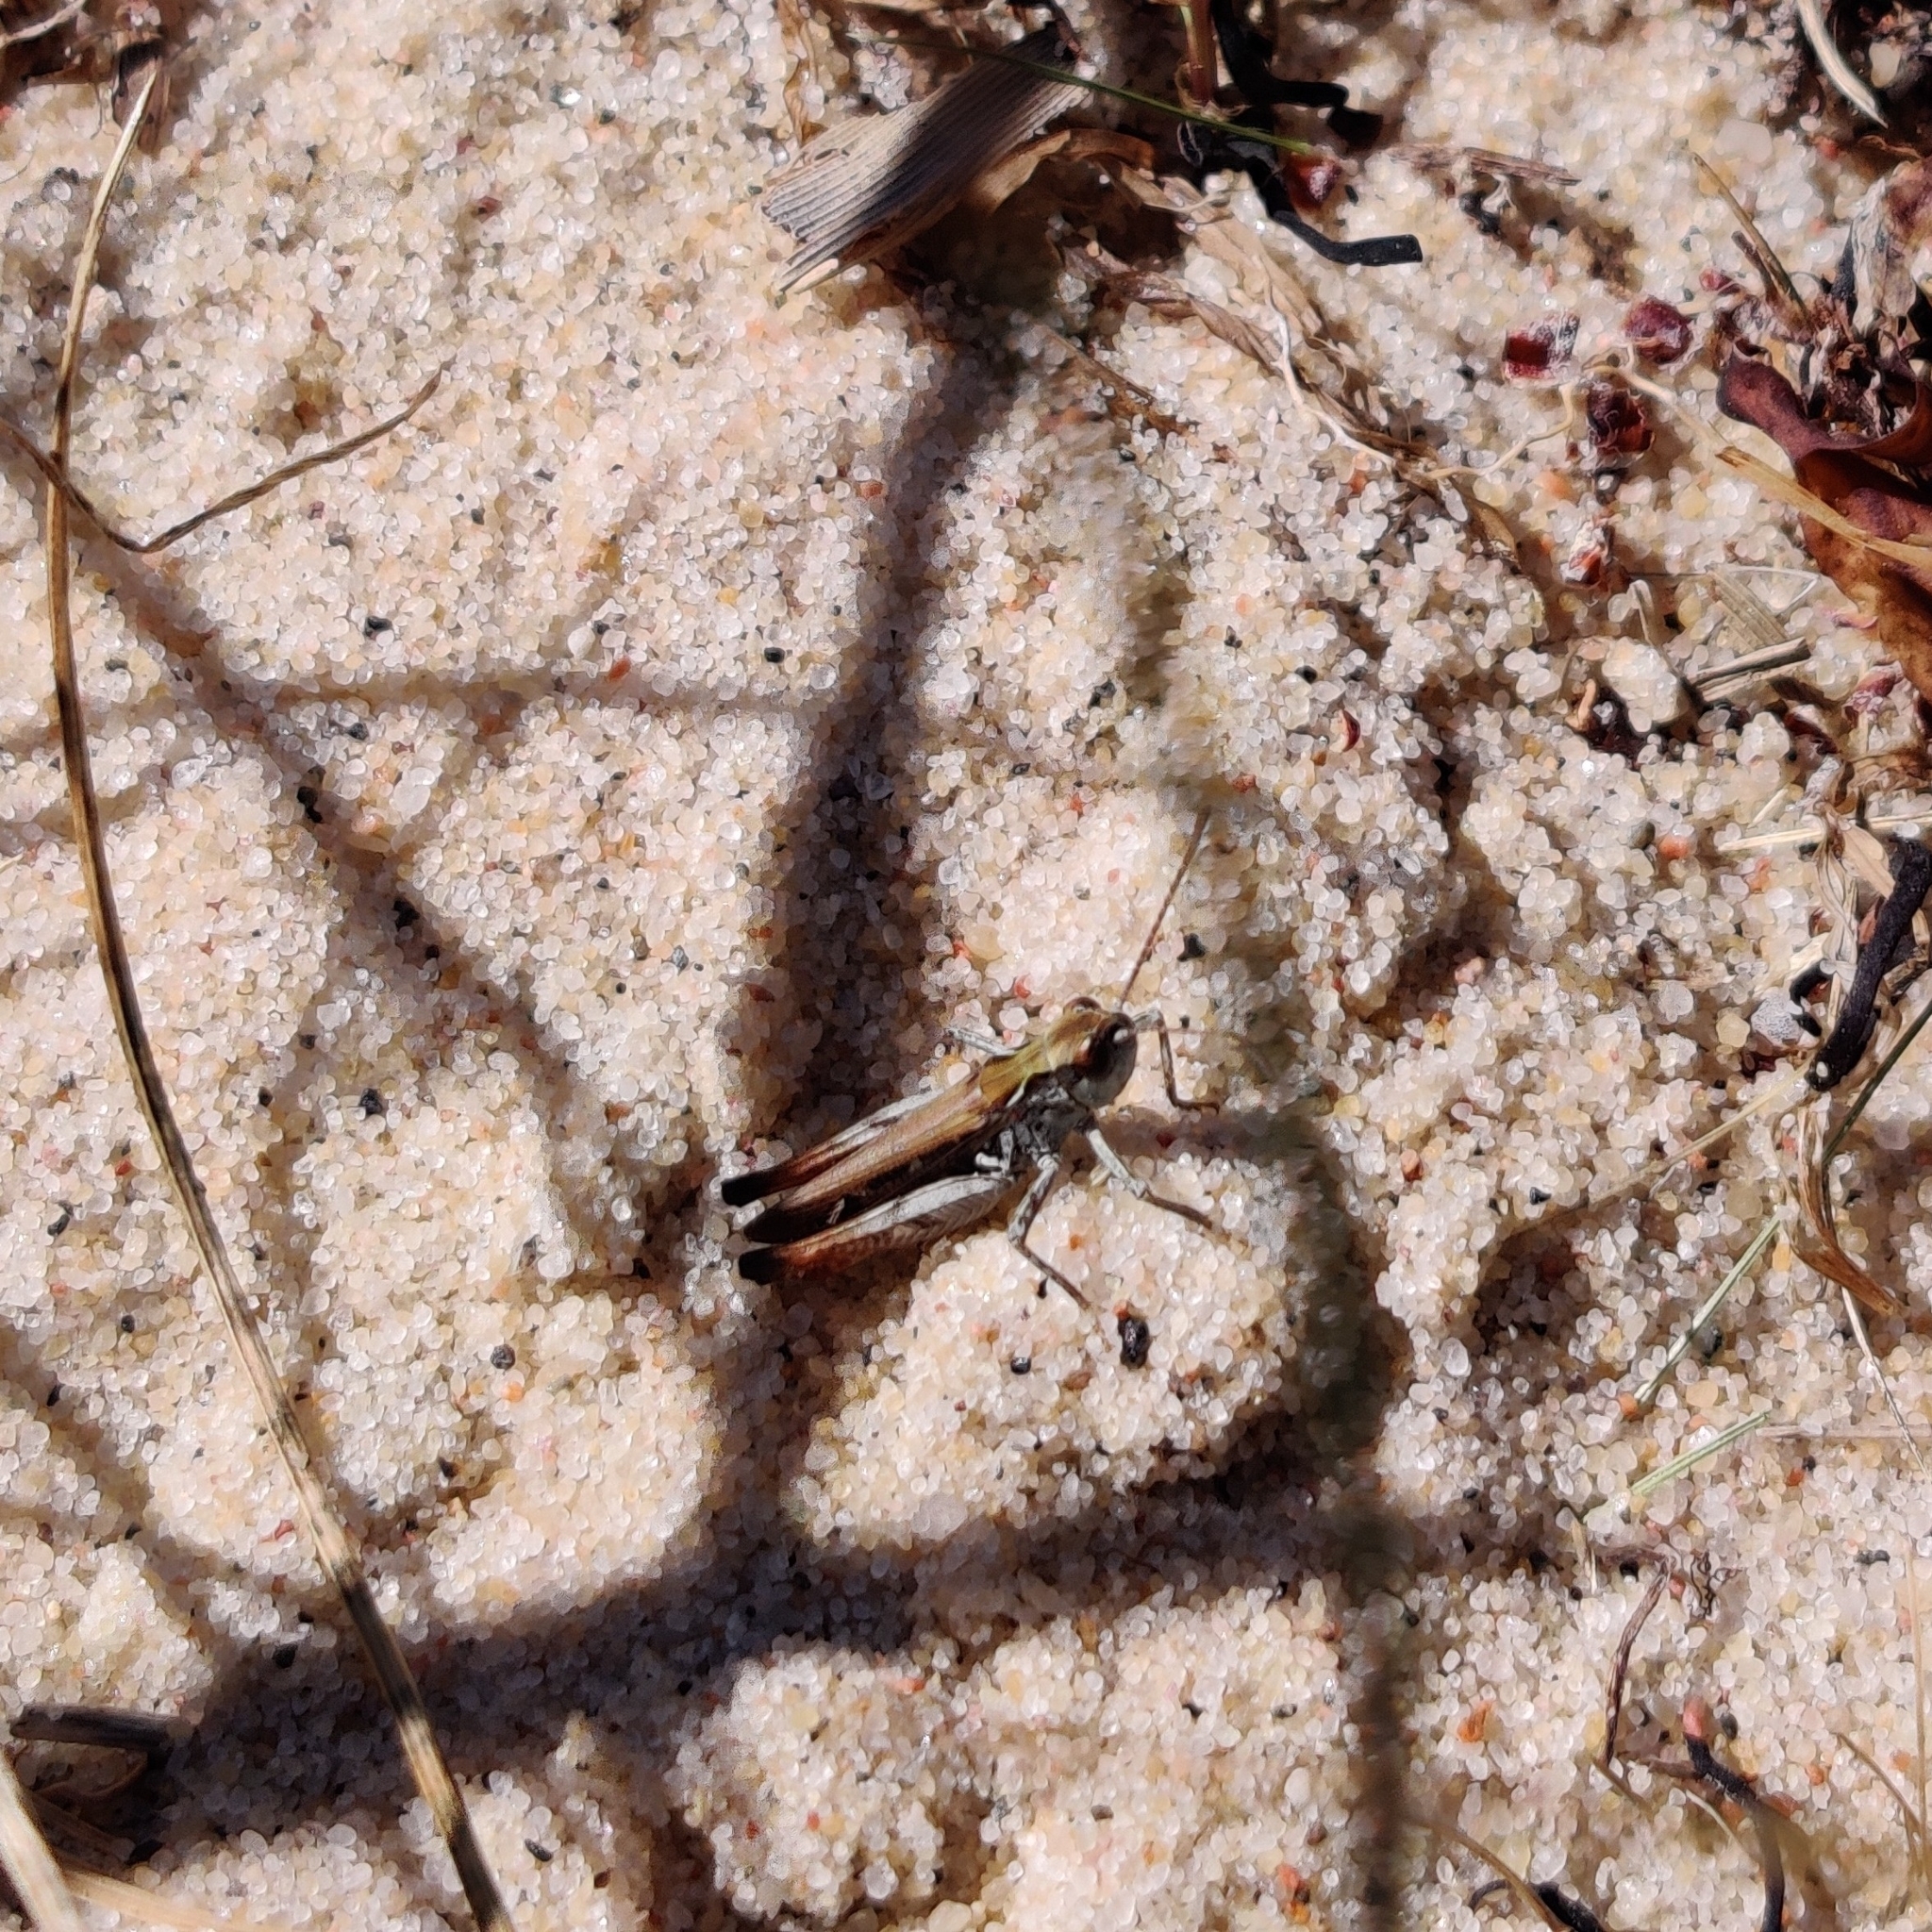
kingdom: Animalia
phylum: Arthropoda
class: Insecta
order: Orthoptera
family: Acrididae
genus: Myrmeleotettix
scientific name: Myrmeleotettix maculatus
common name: Mottled grasshopper
